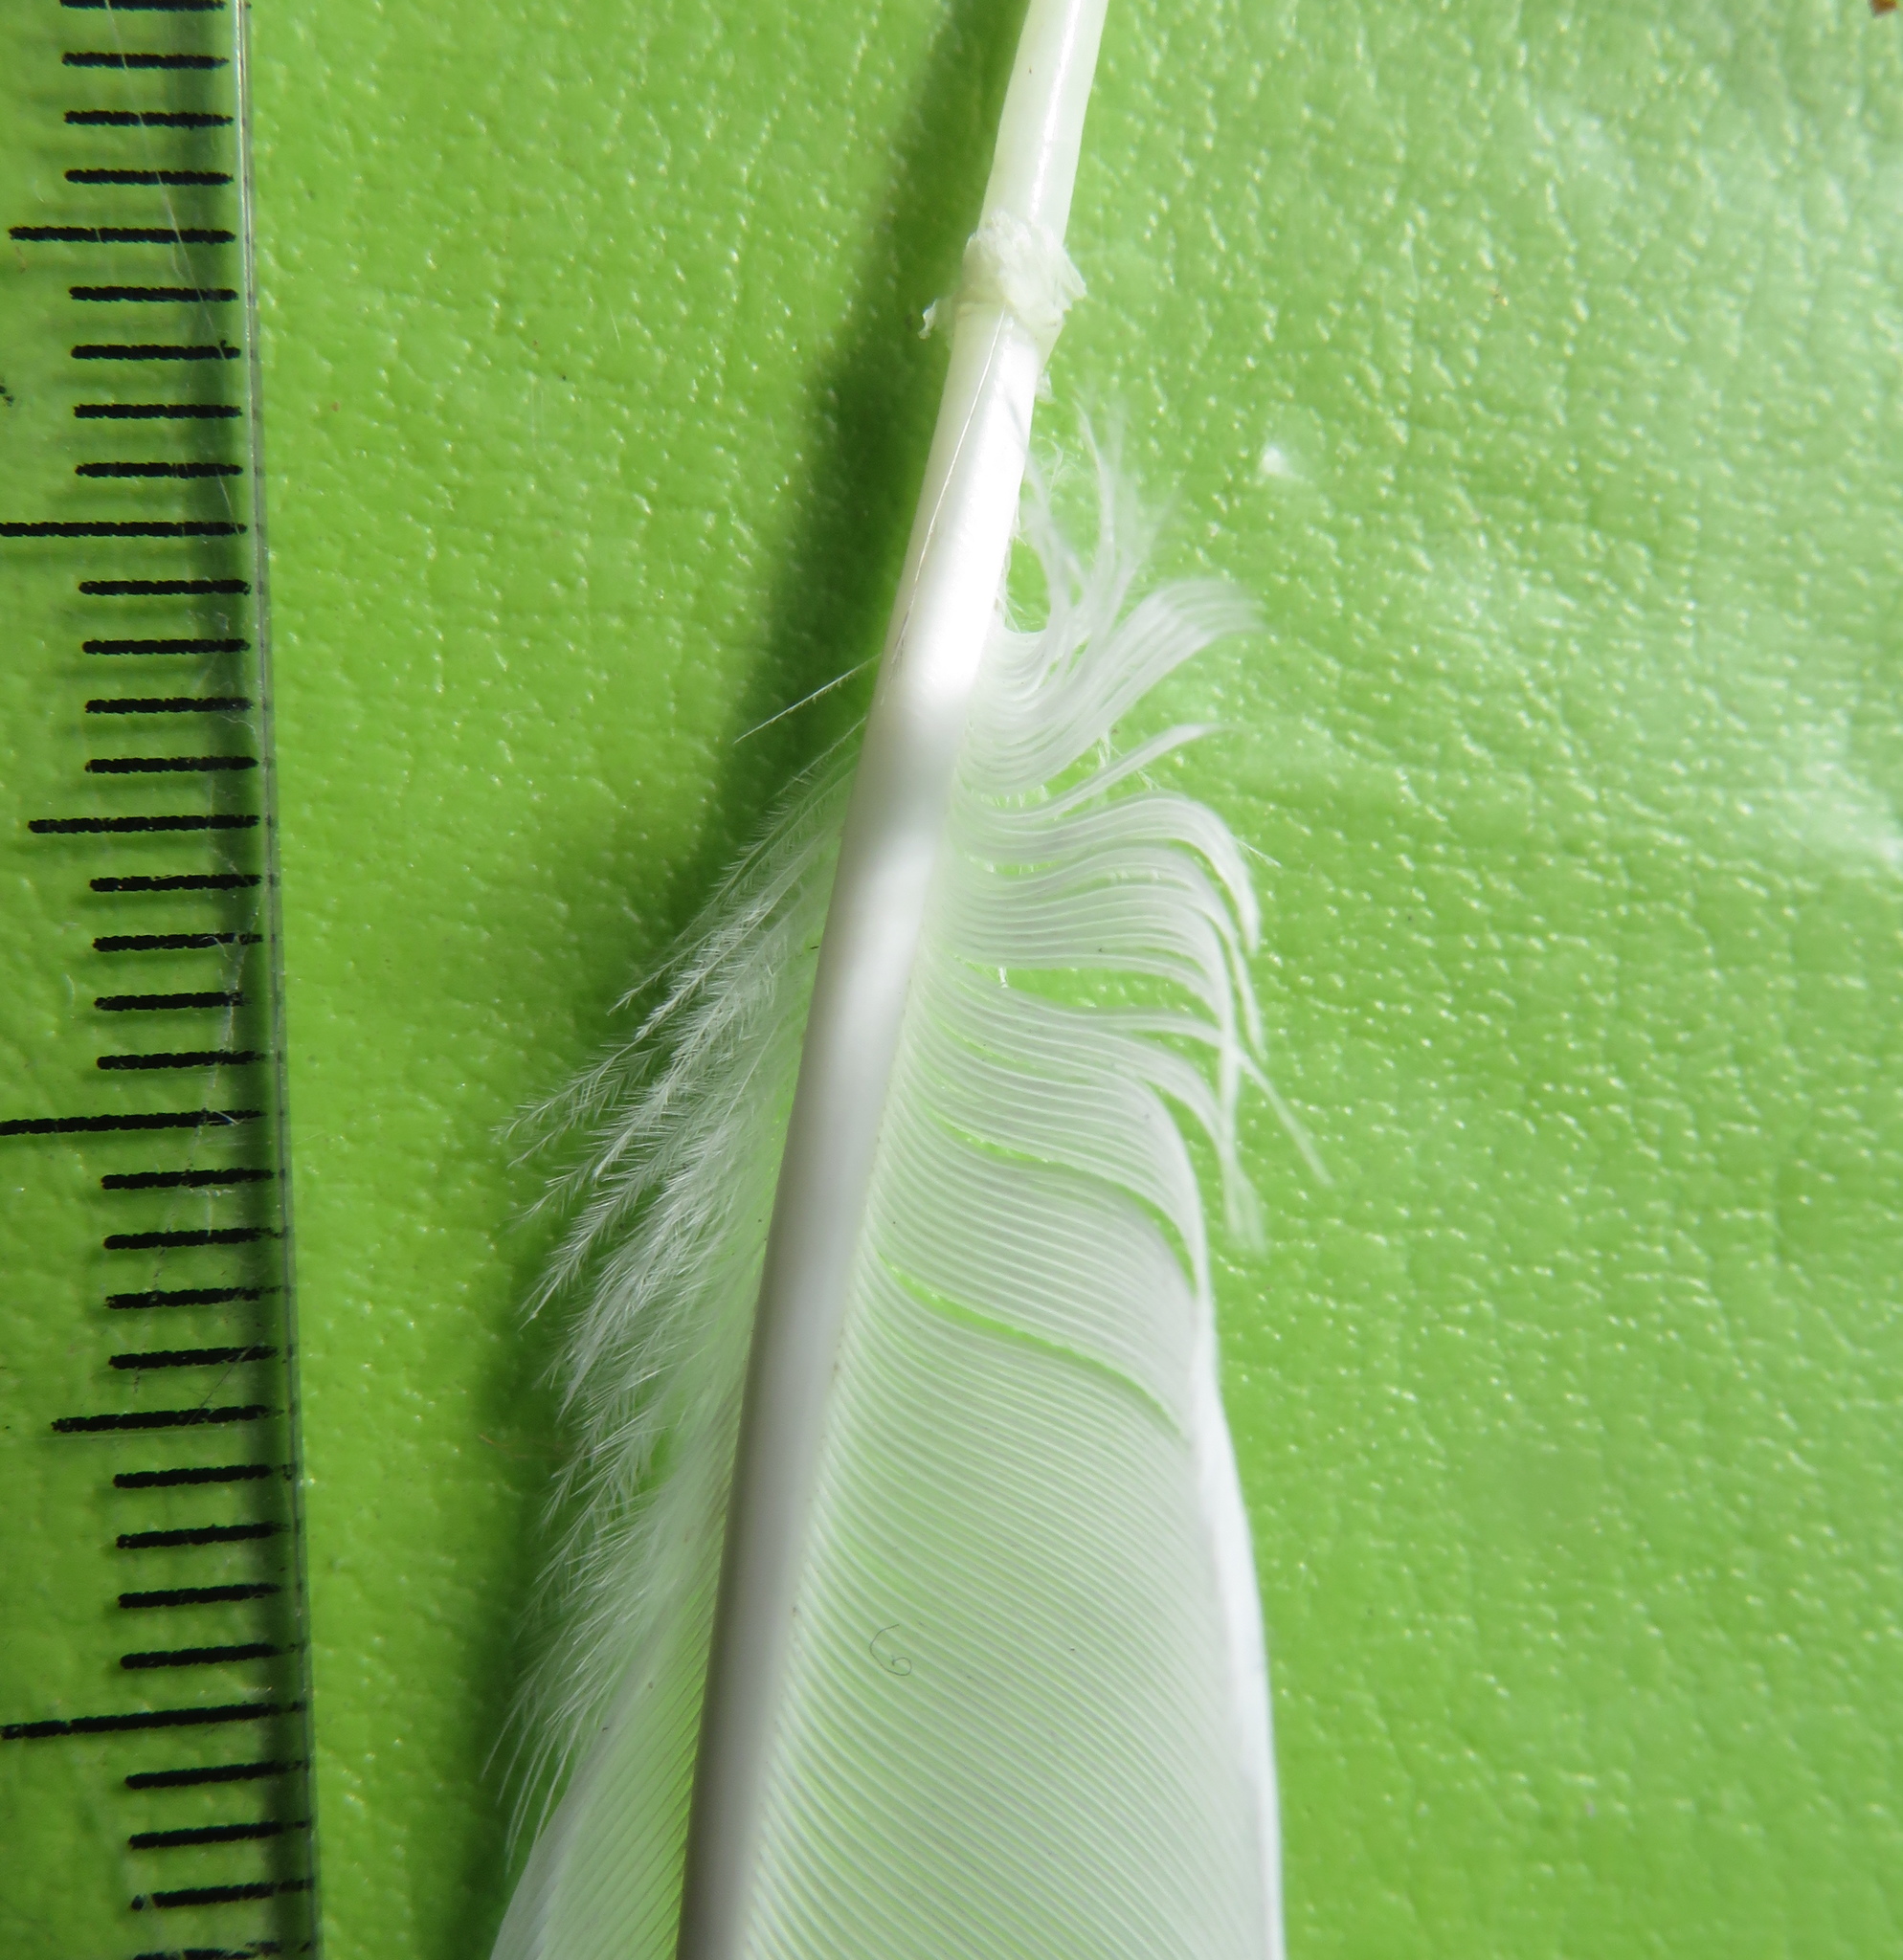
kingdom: Animalia
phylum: Chordata
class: Aves
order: Passeriformes
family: Sturnidae
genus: Acridotheres
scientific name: Acridotheres tristis
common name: Common myna
